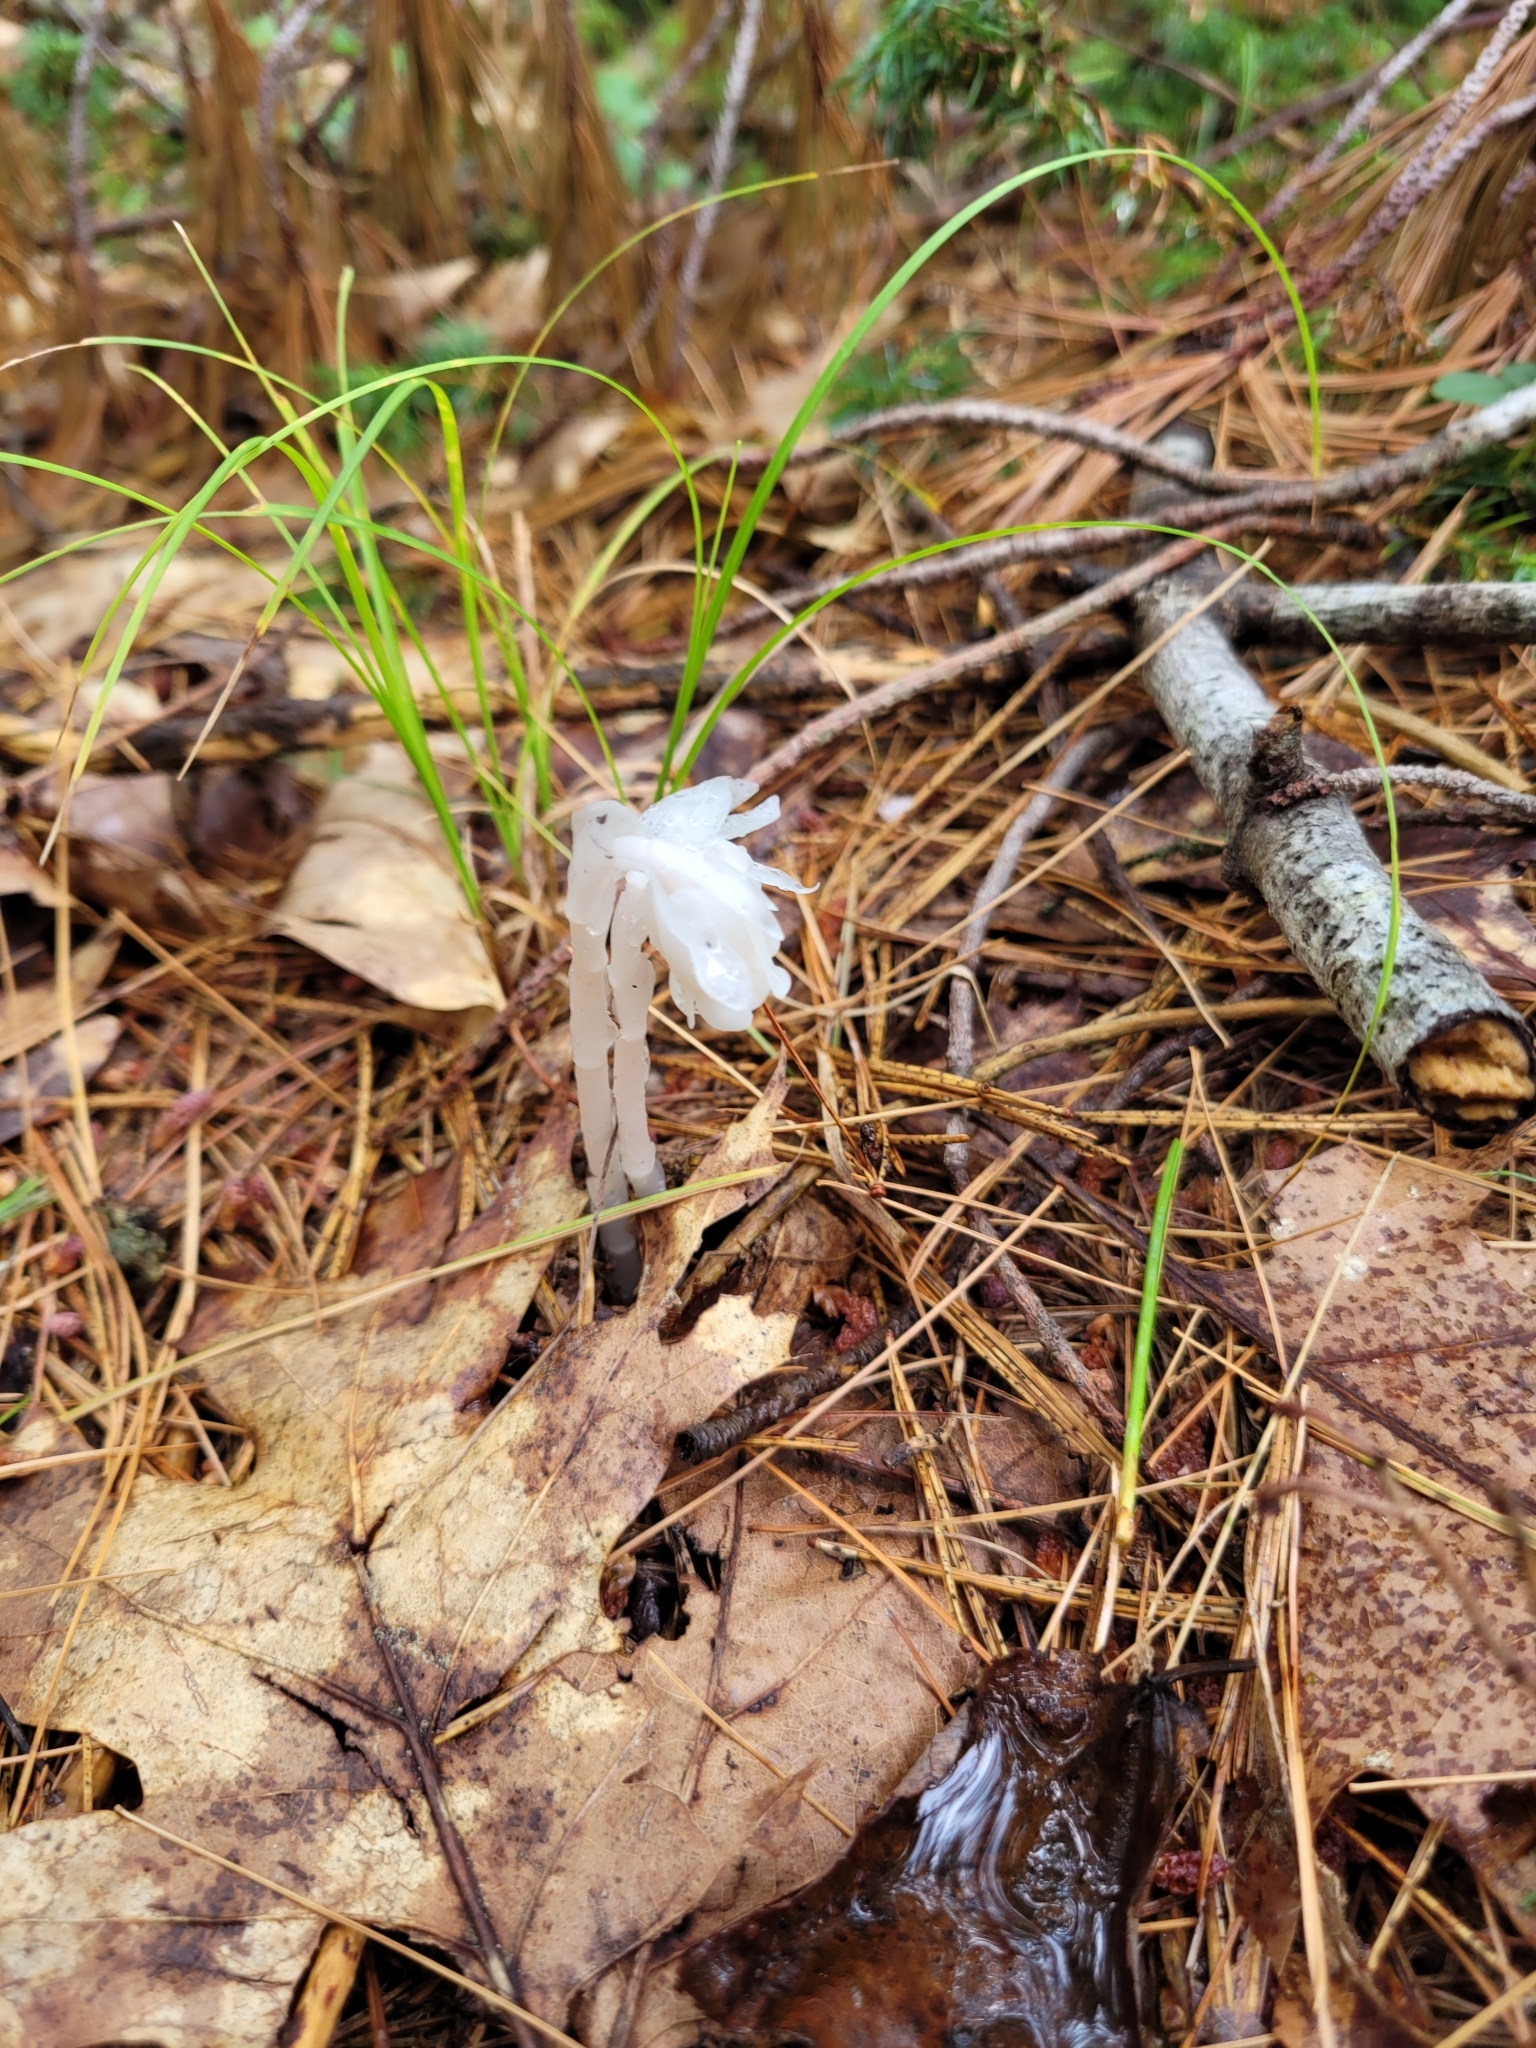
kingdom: Plantae
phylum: Tracheophyta
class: Magnoliopsida
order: Ericales
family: Ericaceae
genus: Monotropa
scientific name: Monotropa uniflora
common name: Convulsion root
